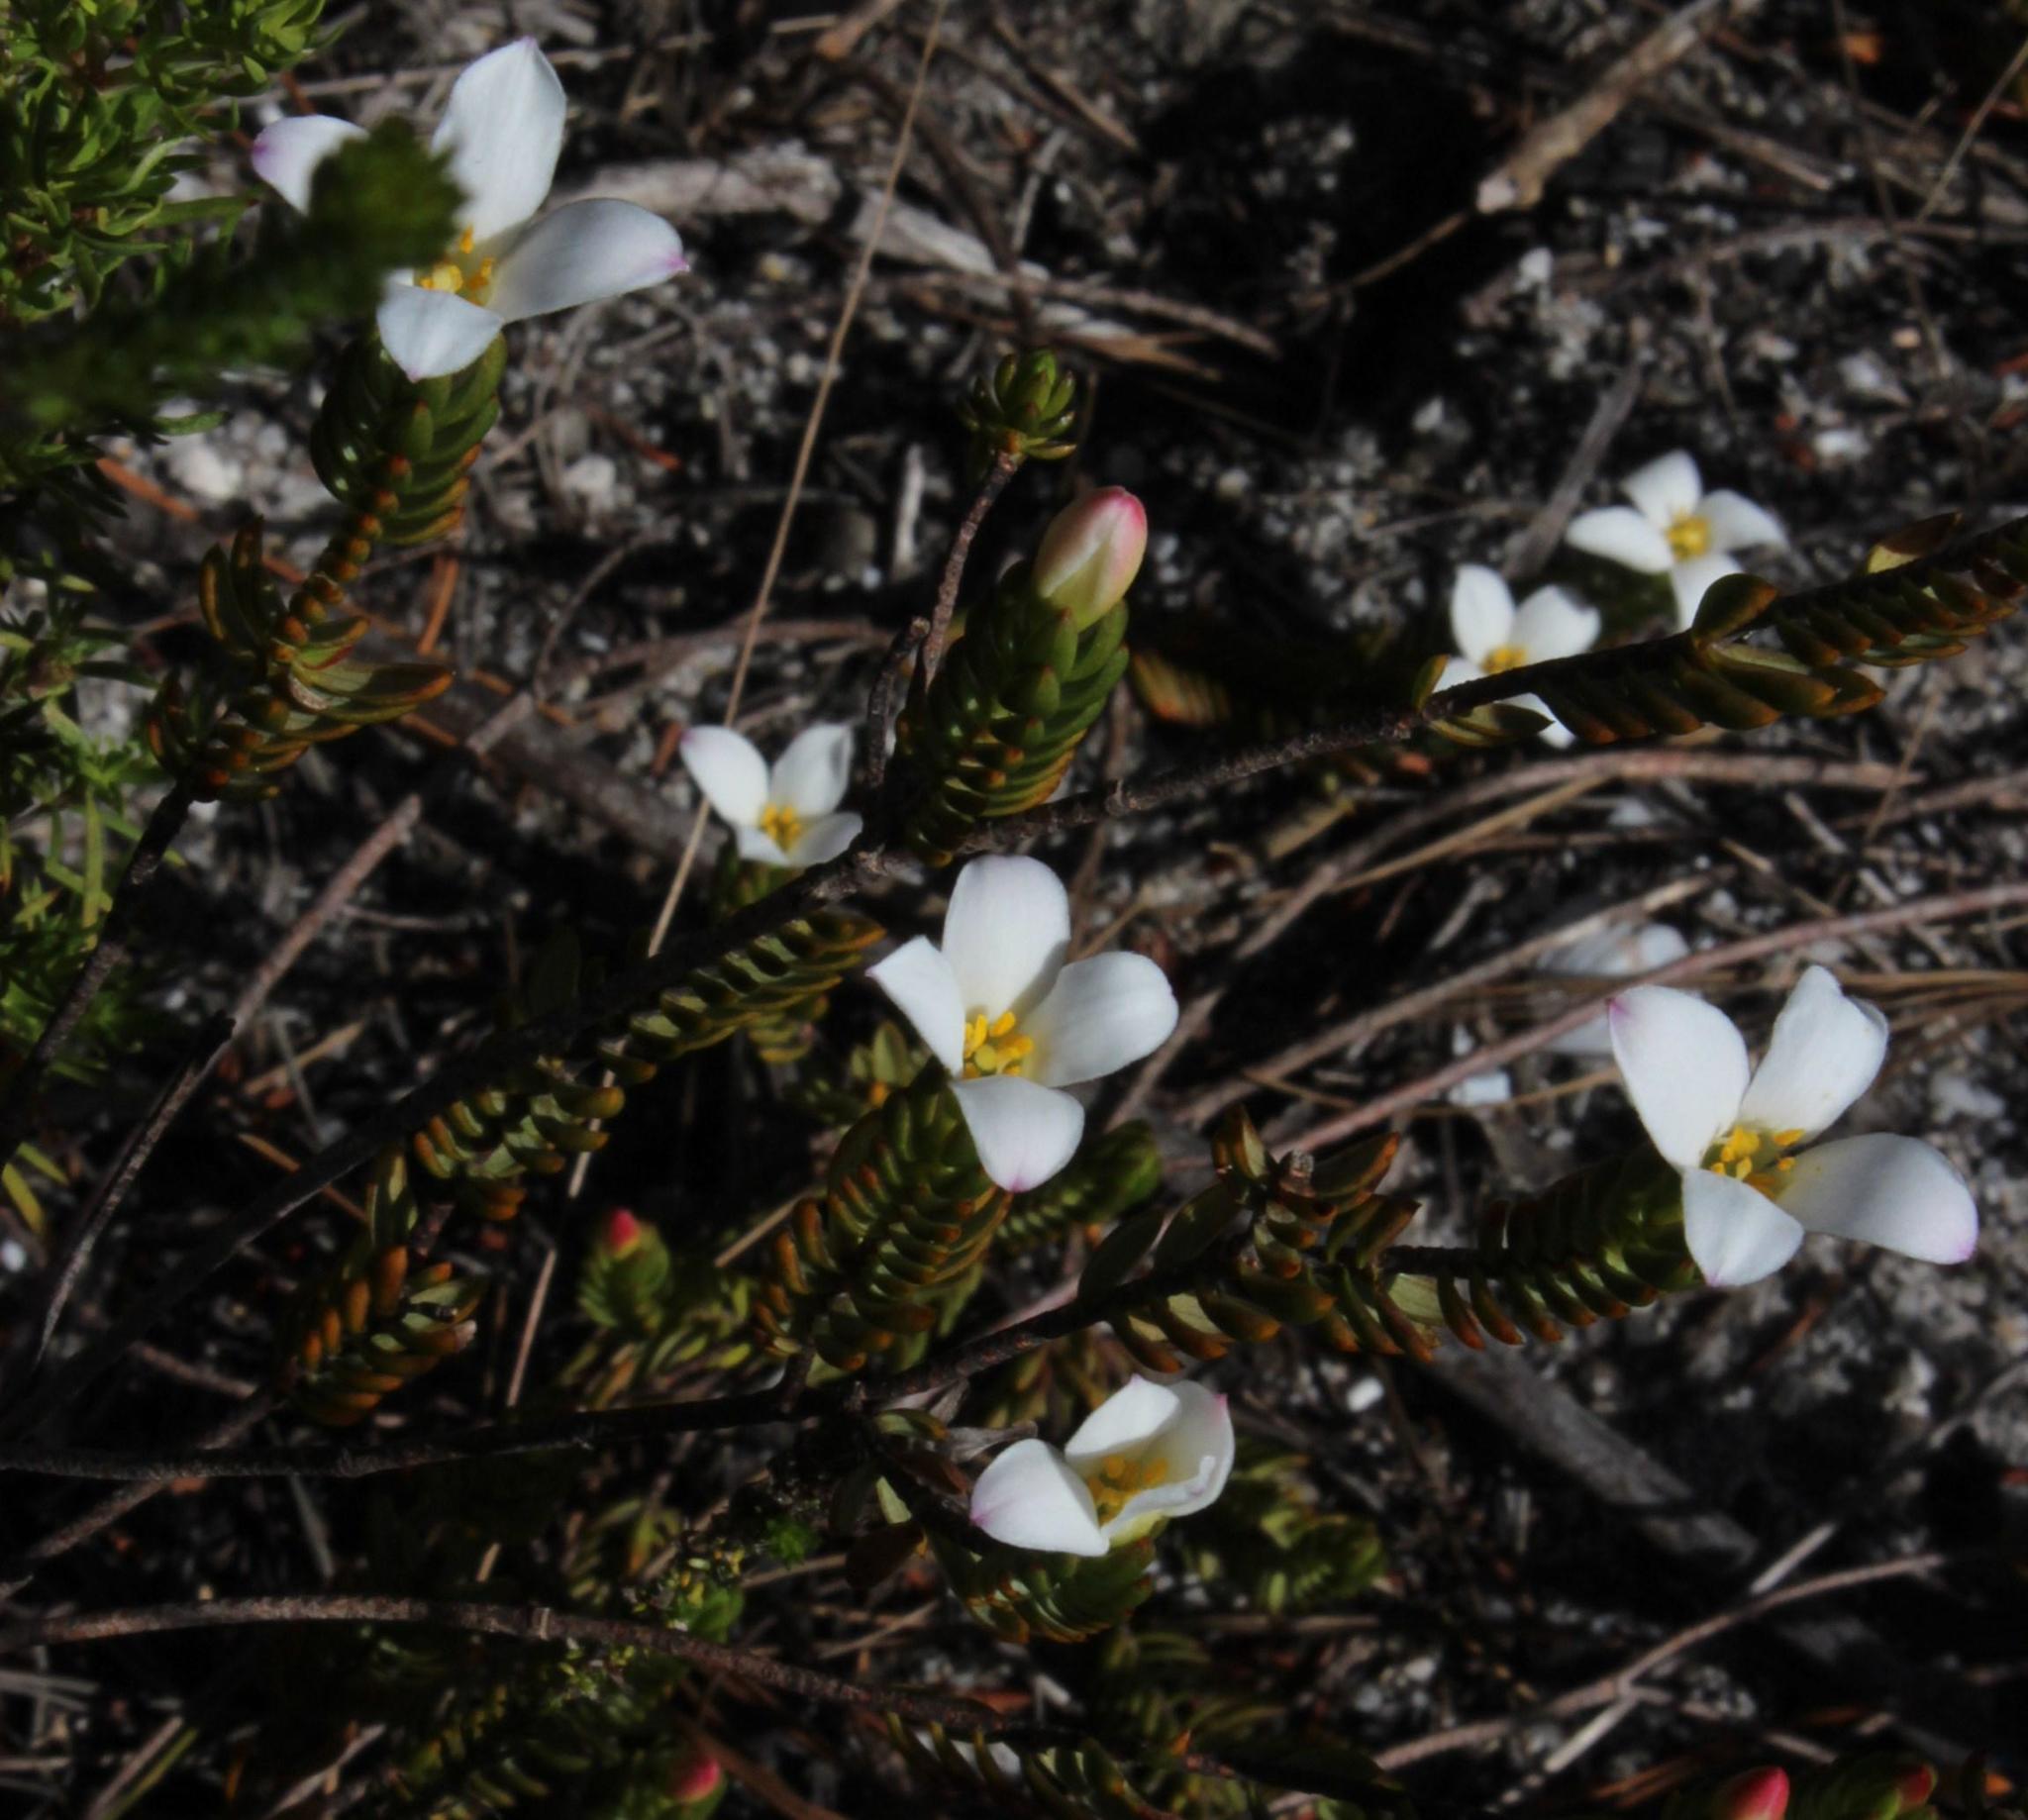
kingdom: Plantae
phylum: Tracheophyta
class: Magnoliopsida
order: Malvales
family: Thymelaeaceae
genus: Lachnaea
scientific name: Lachnaea grandiflora
